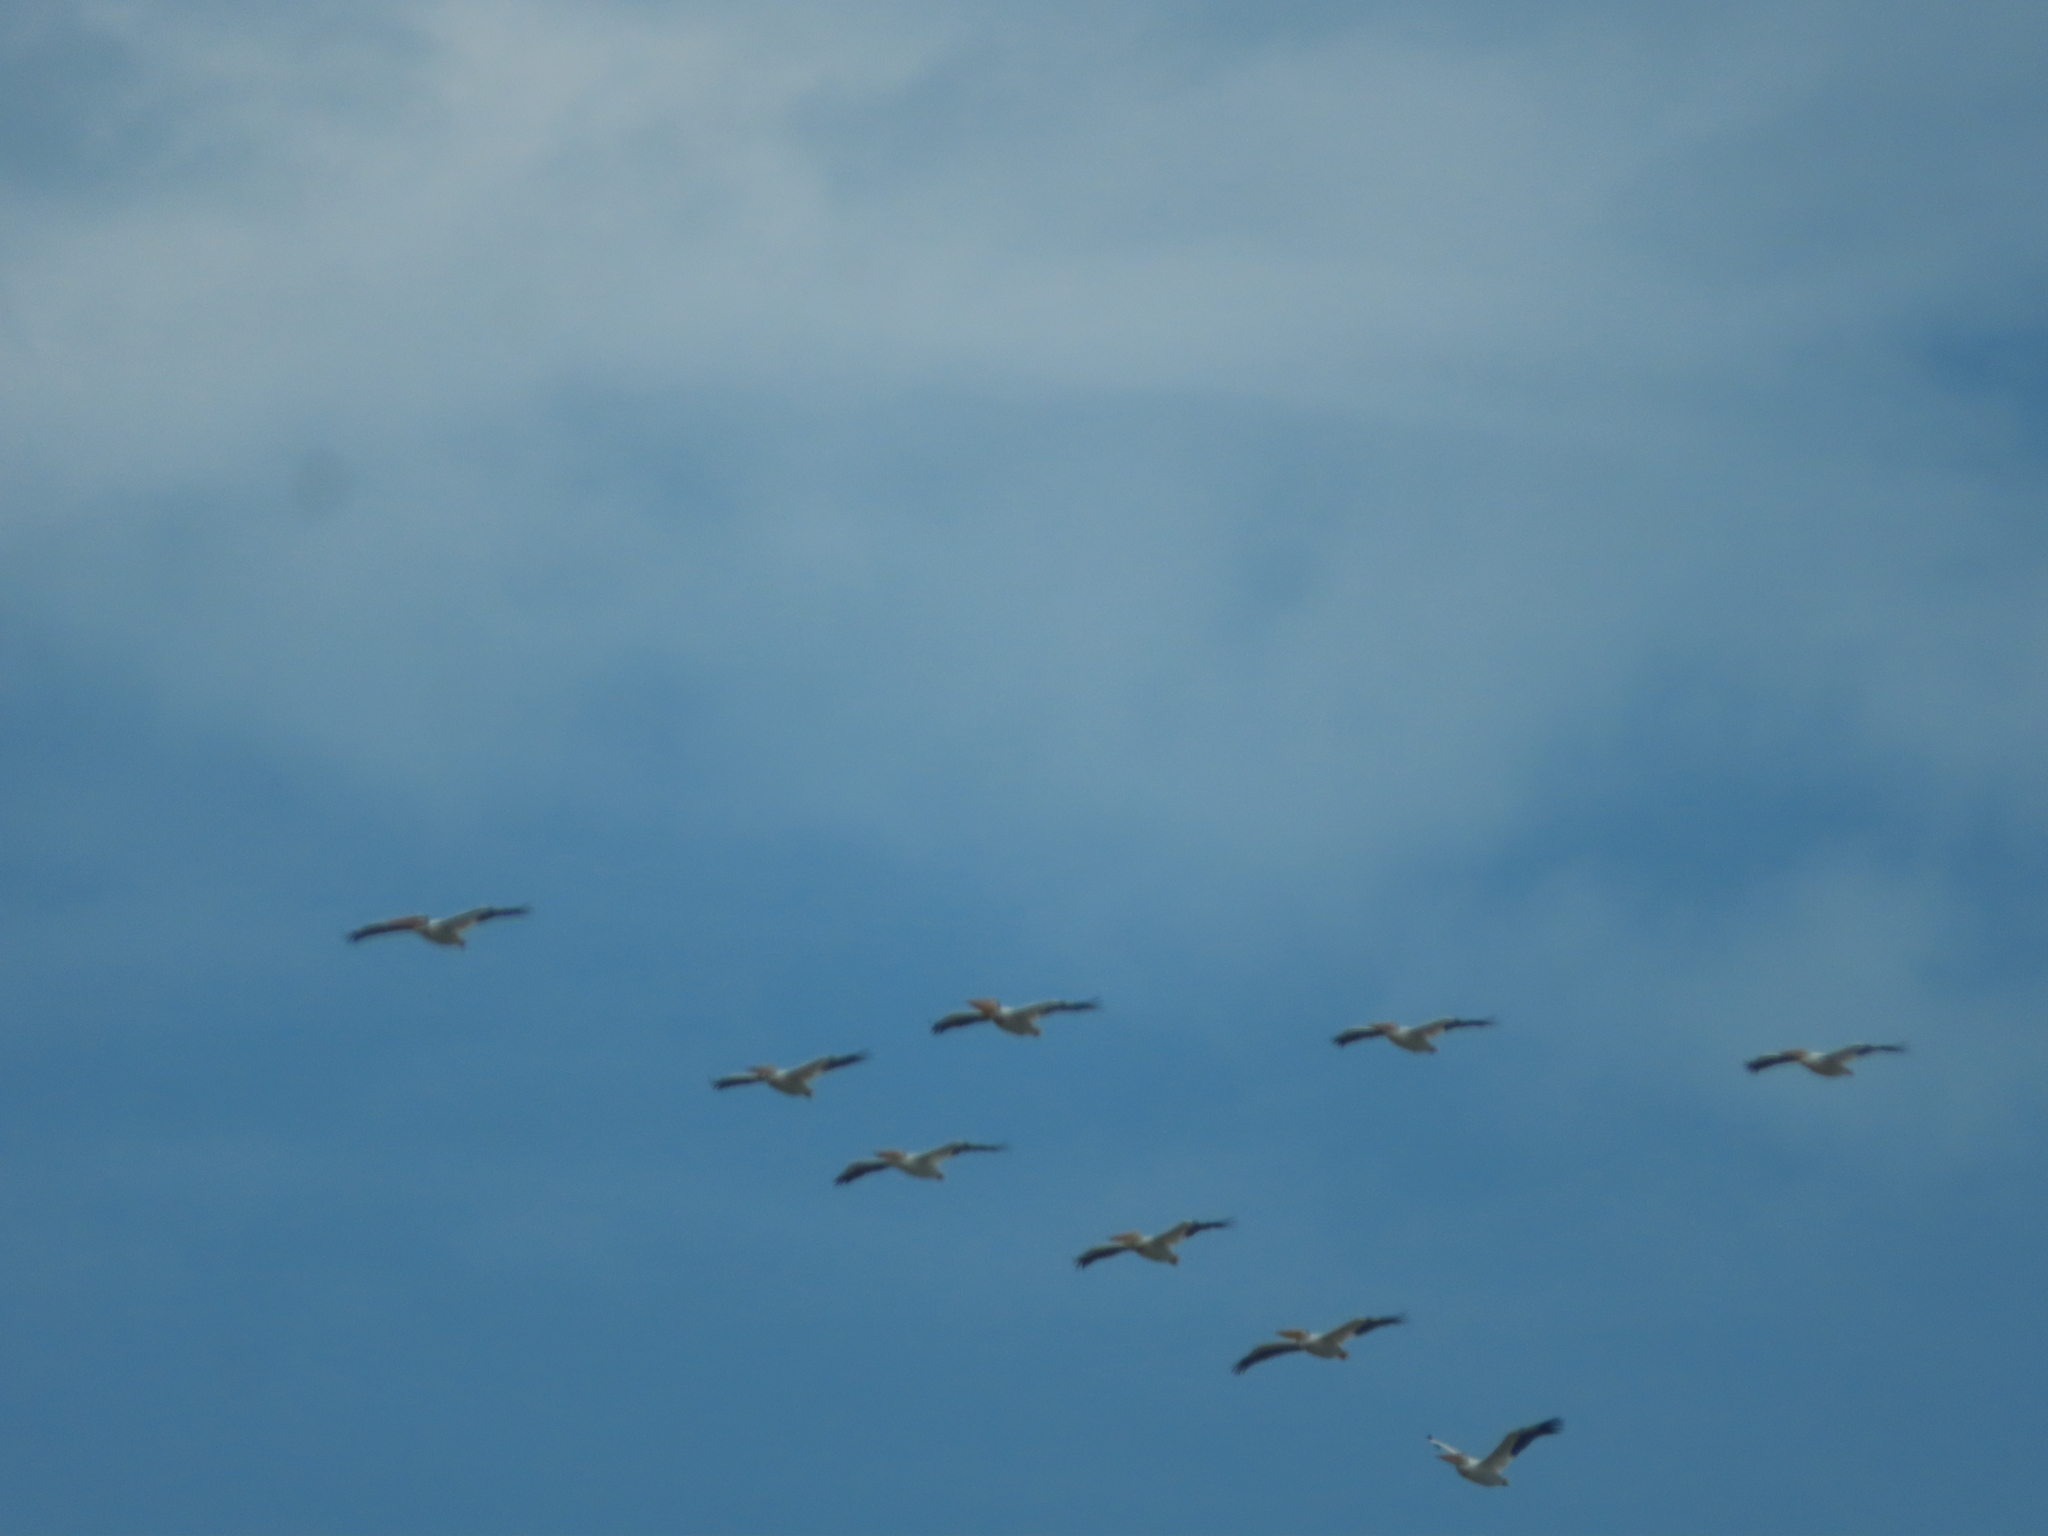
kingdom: Animalia
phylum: Chordata
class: Aves
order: Pelecaniformes
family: Pelecanidae
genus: Pelecanus
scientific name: Pelecanus erythrorhynchos
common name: American white pelican
